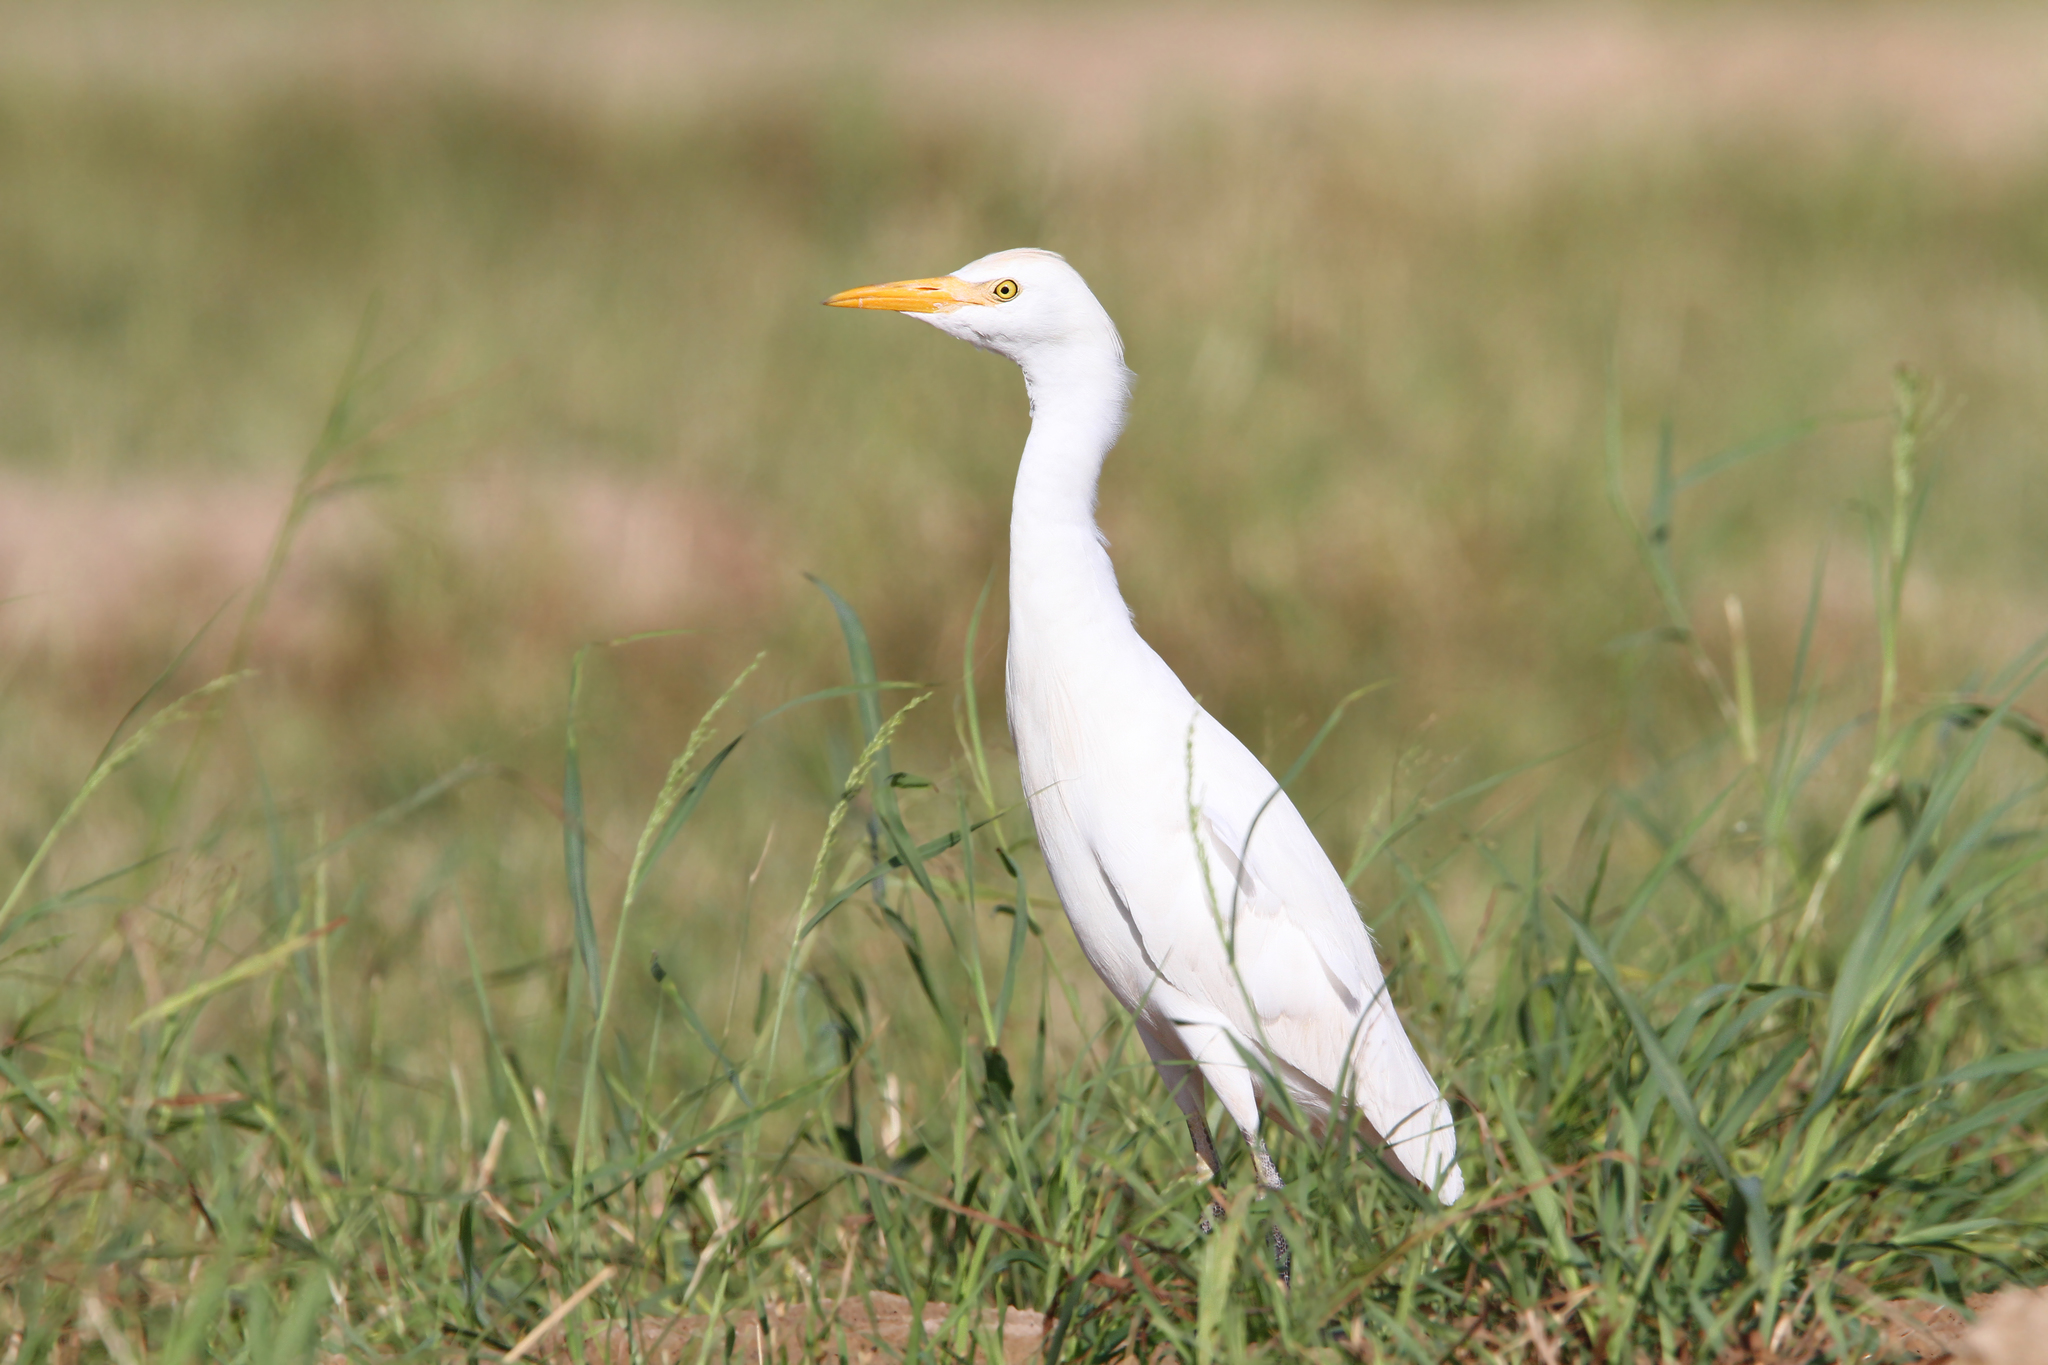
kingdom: Animalia
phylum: Chordata
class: Aves
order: Pelecaniformes
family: Ardeidae
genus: Bubulcus
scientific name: Bubulcus ibis
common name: Cattle egret
